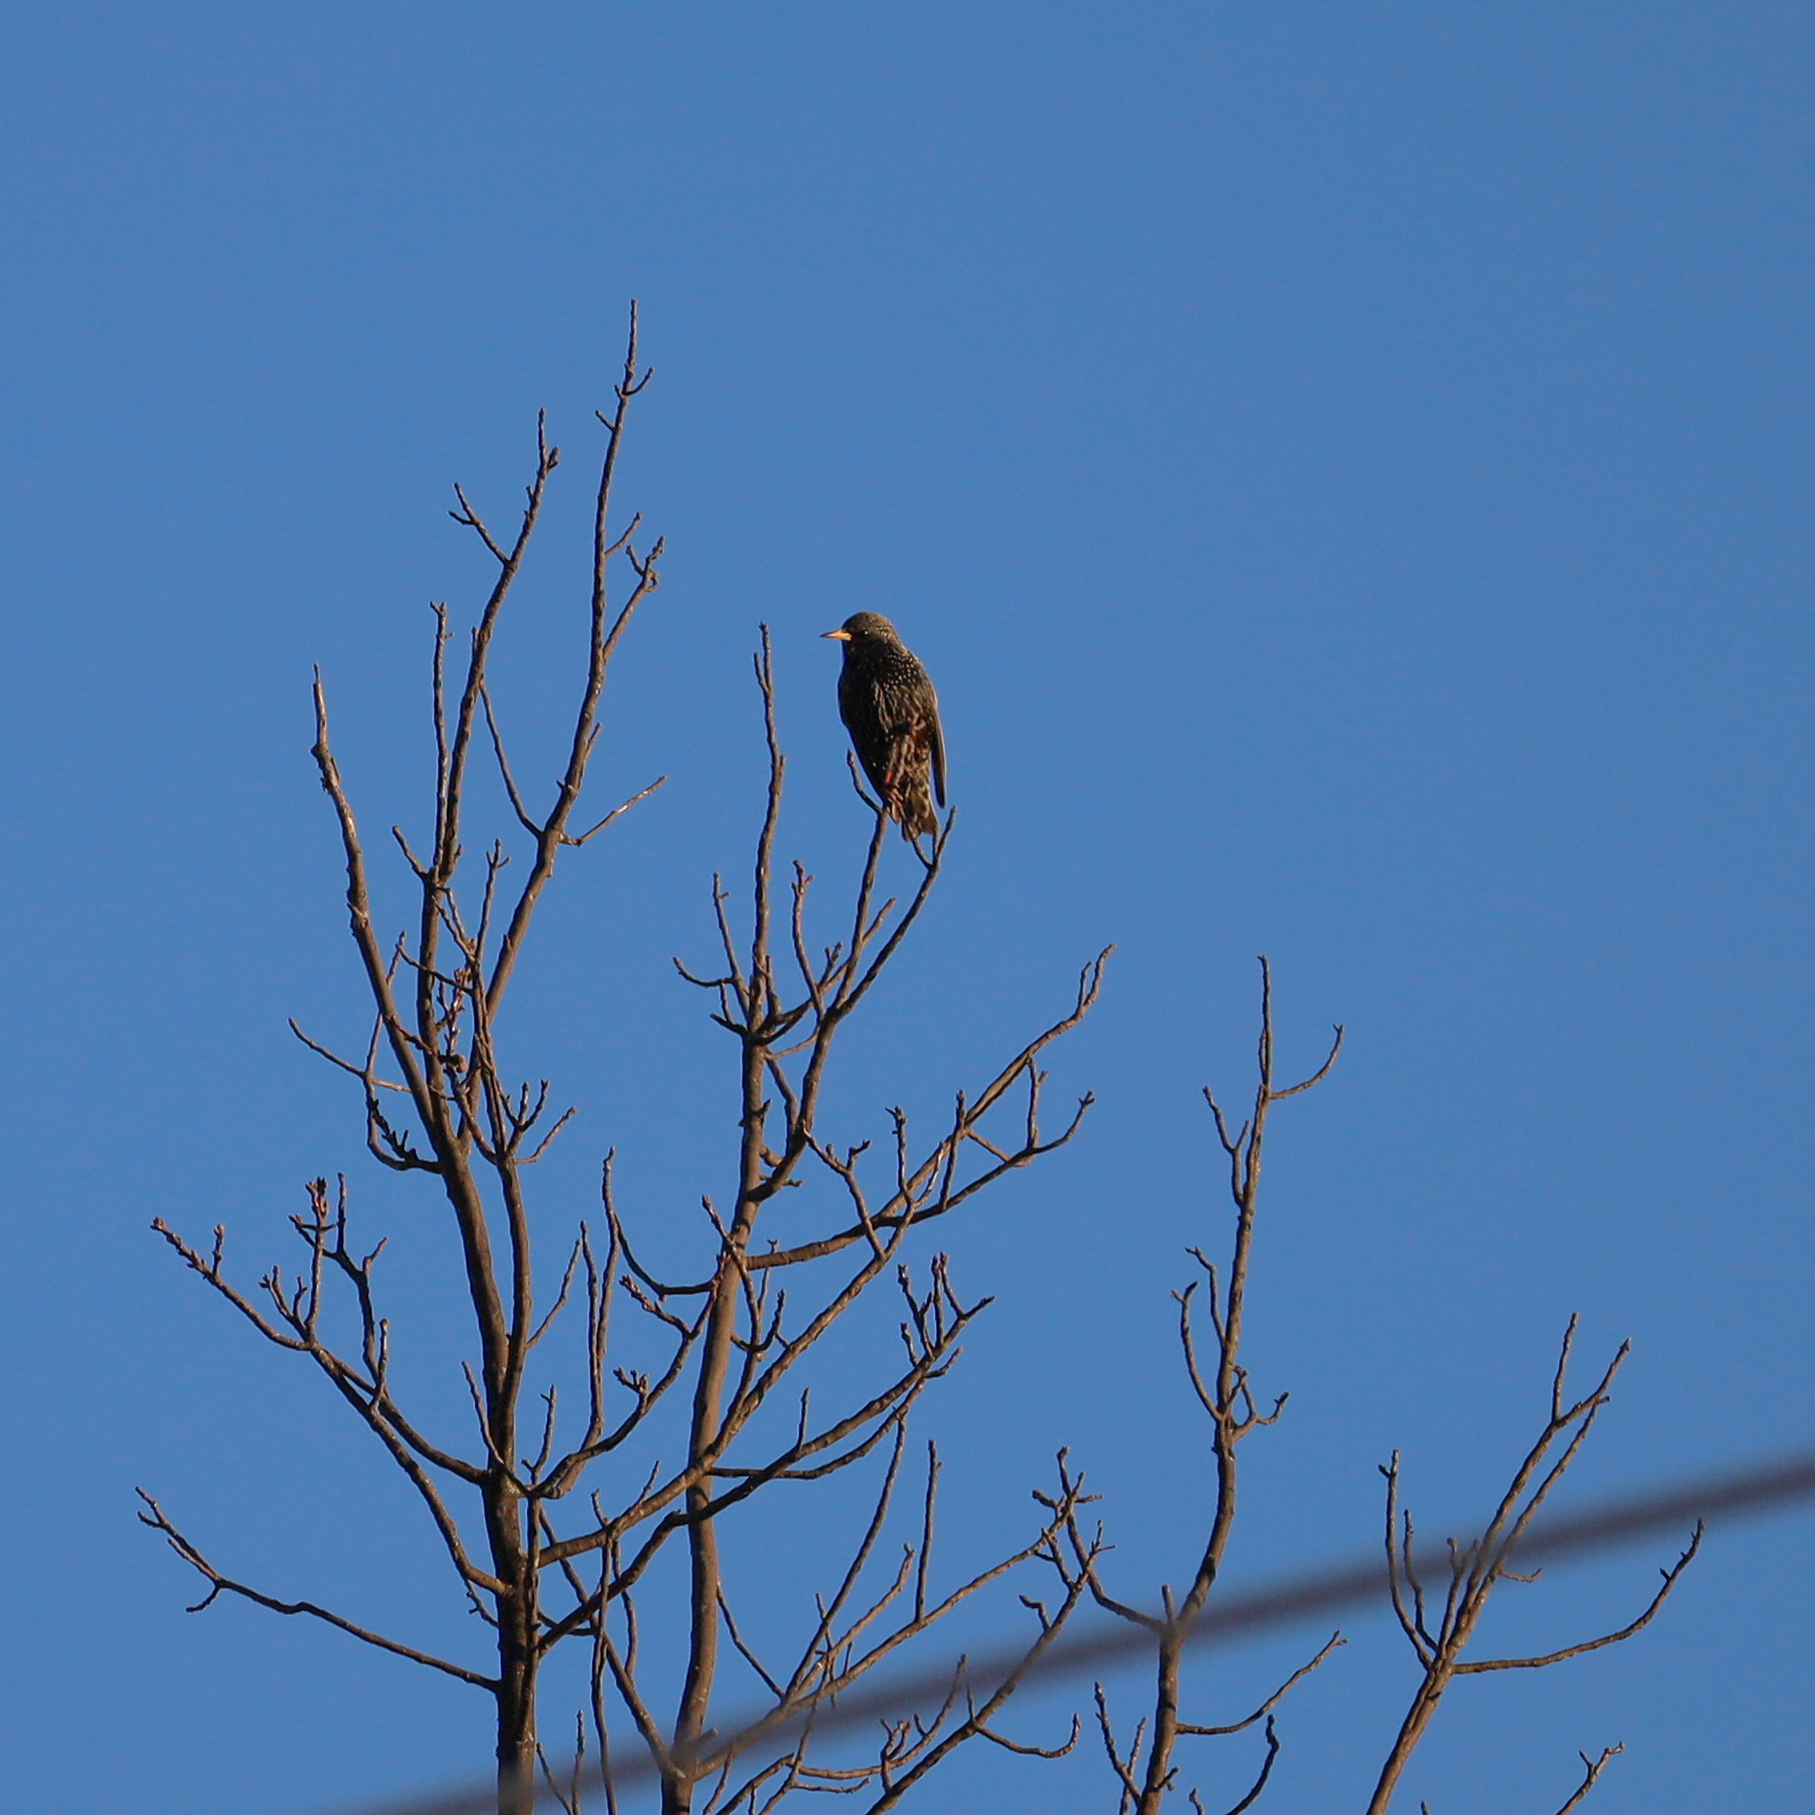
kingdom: Animalia
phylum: Chordata
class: Aves
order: Passeriformes
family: Sturnidae
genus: Sturnus
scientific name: Sturnus vulgaris
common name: Common starling
